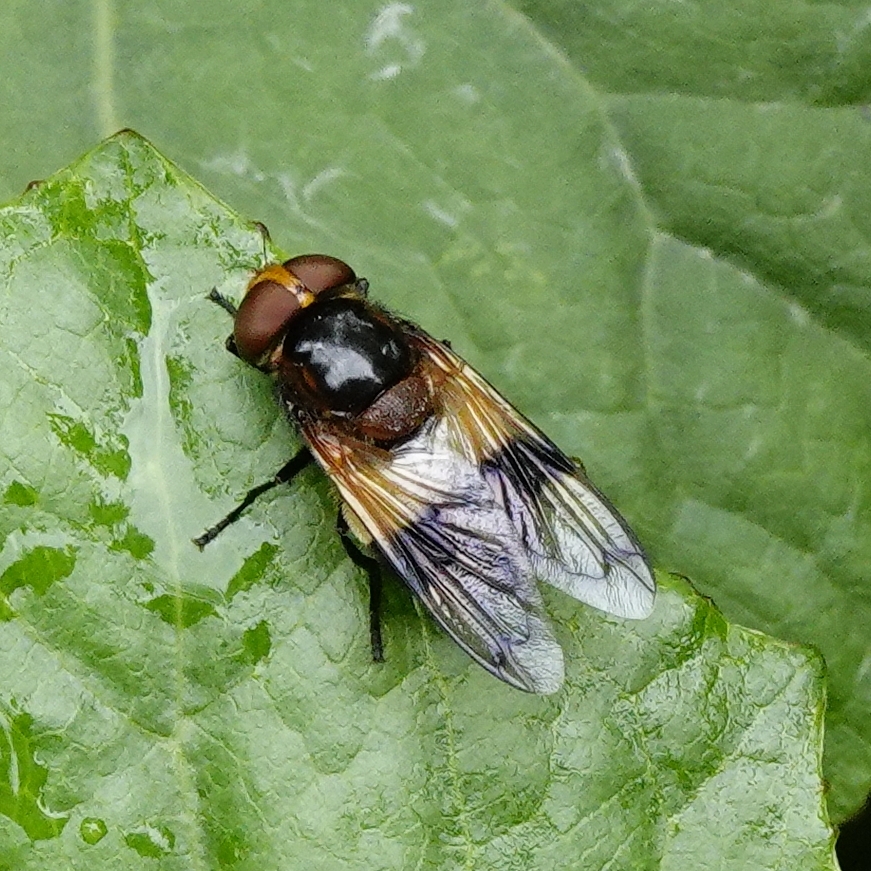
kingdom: Animalia
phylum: Arthropoda
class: Insecta
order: Diptera
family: Syrphidae
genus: Volucella
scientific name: Volucella pellucens
